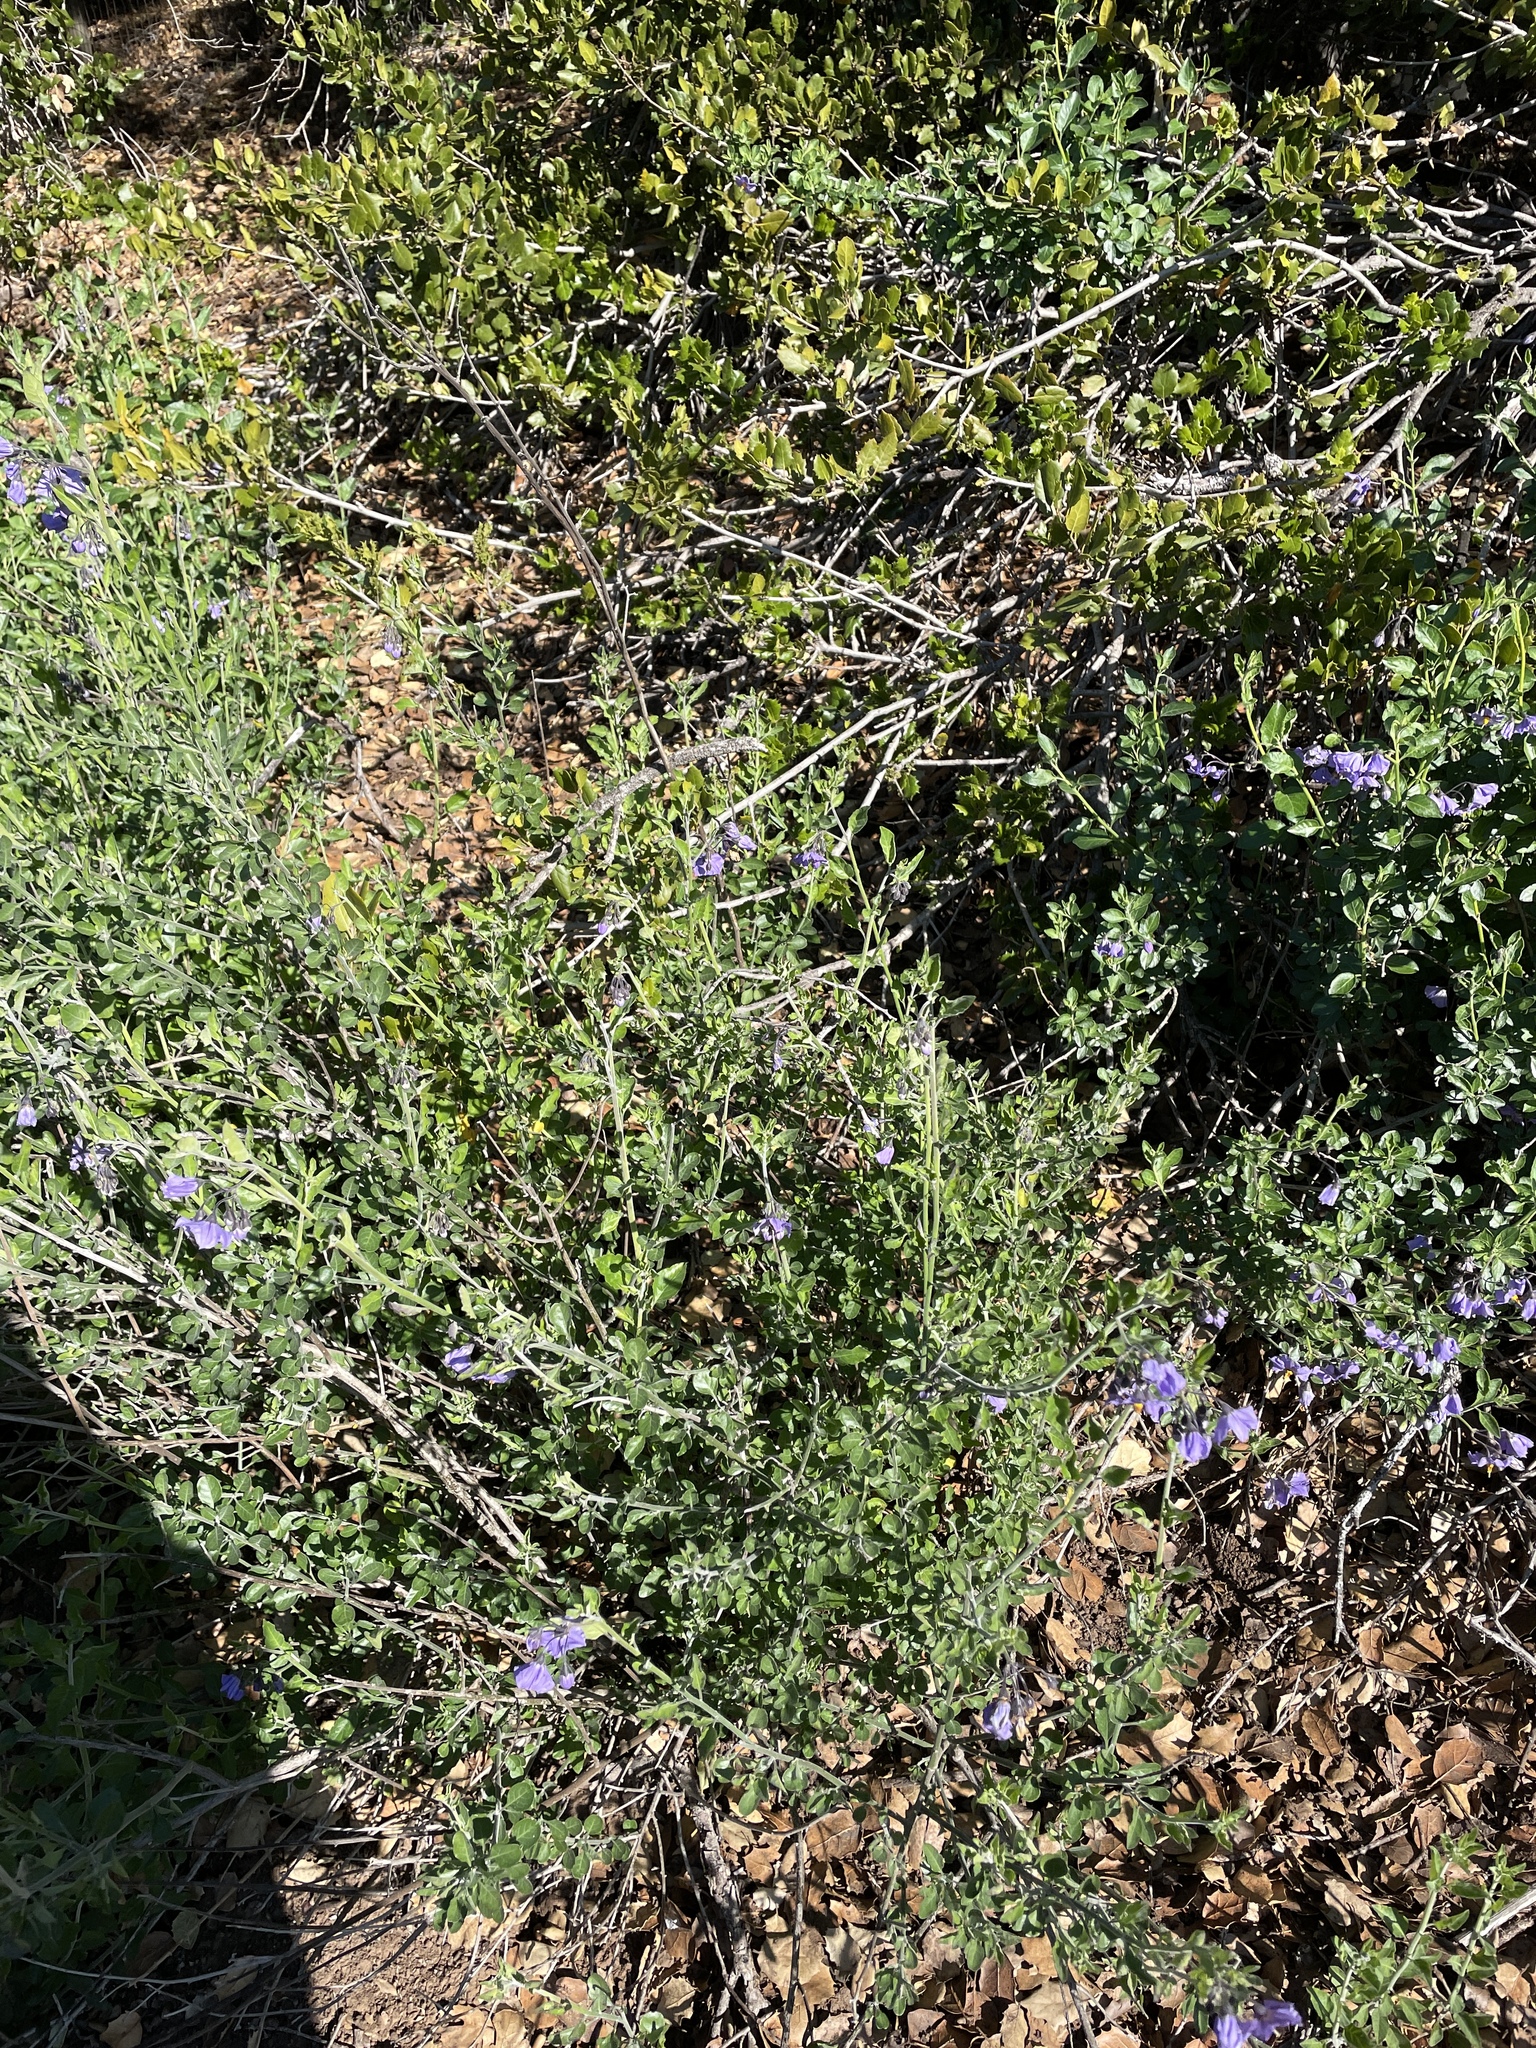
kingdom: Plantae
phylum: Tracheophyta
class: Magnoliopsida
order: Solanales
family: Solanaceae
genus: Solanum
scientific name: Solanum umbelliferum
